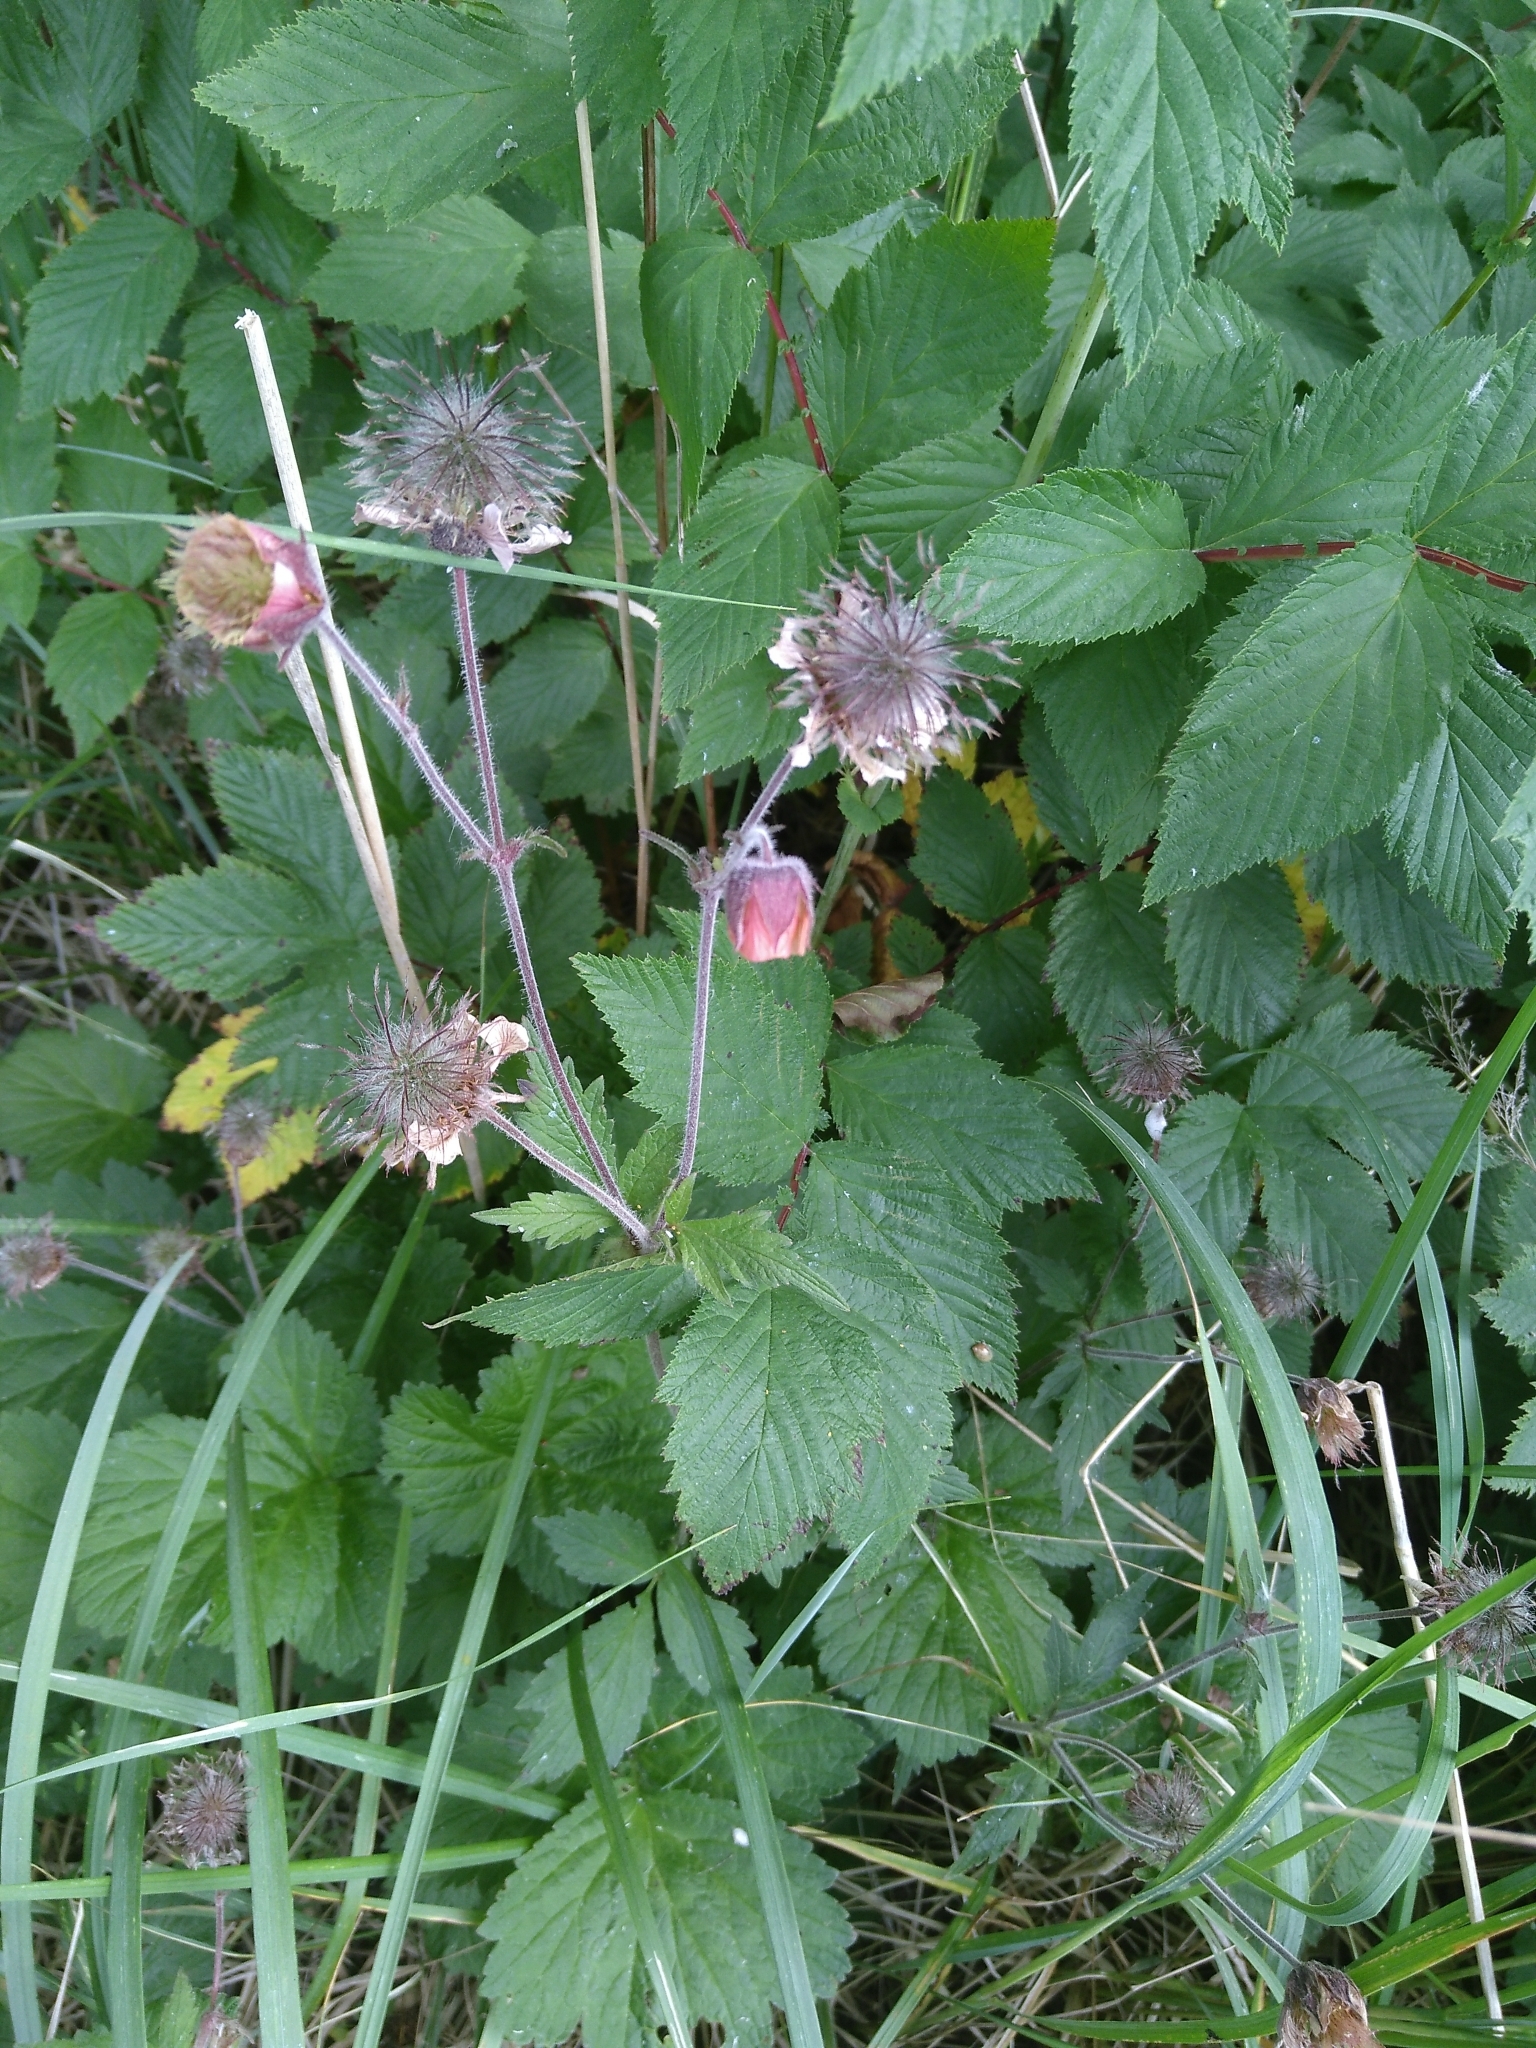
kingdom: Plantae
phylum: Tracheophyta
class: Magnoliopsida
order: Rosales
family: Rosaceae
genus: Geum
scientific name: Geum rivale
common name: Water avens
